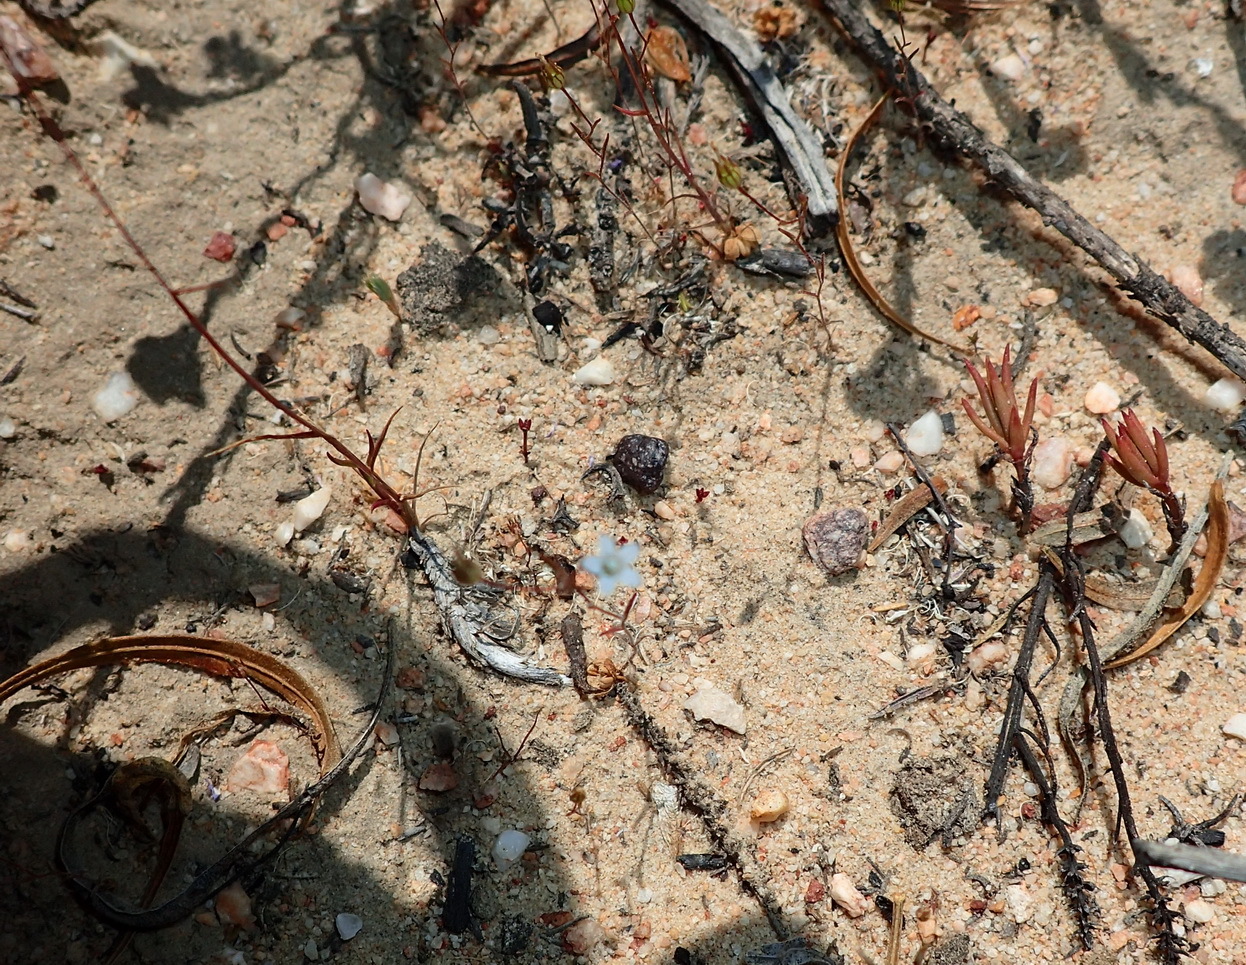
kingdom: Plantae
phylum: Tracheophyta
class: Magnoliopsida
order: Asterales
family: Campanulaceae
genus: Wahlenbergia
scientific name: Wahlenbergia debilis
